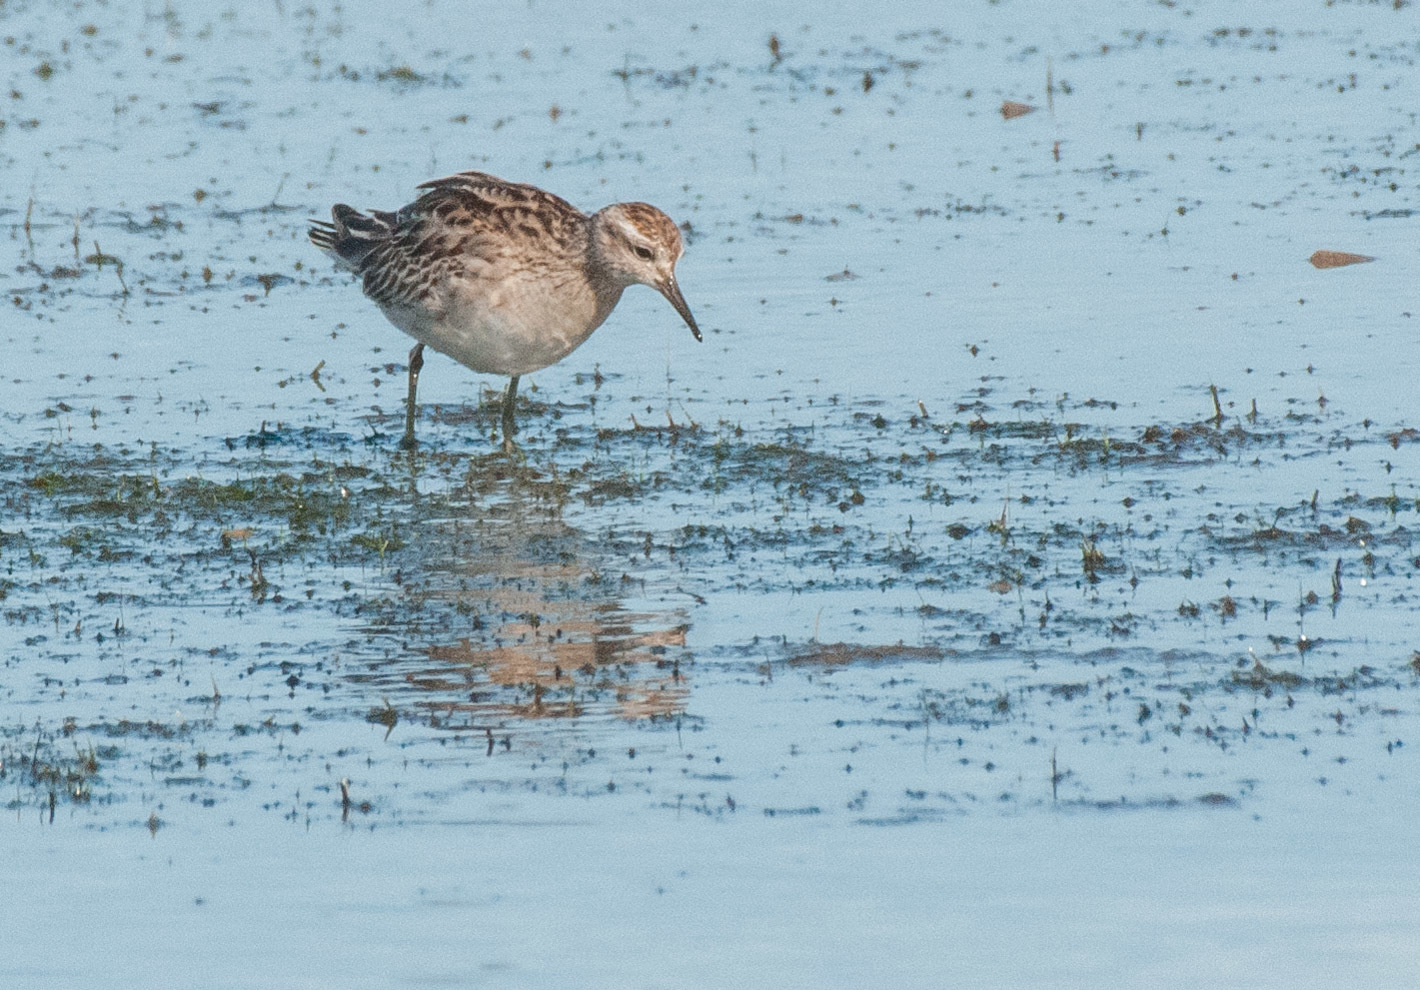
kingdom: Animalia
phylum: Chordata
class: Aves
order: Charadriiformes
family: Scolopacidae
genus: Calidris
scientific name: Calidris acuminata
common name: Sharp-tailed sandpiper
